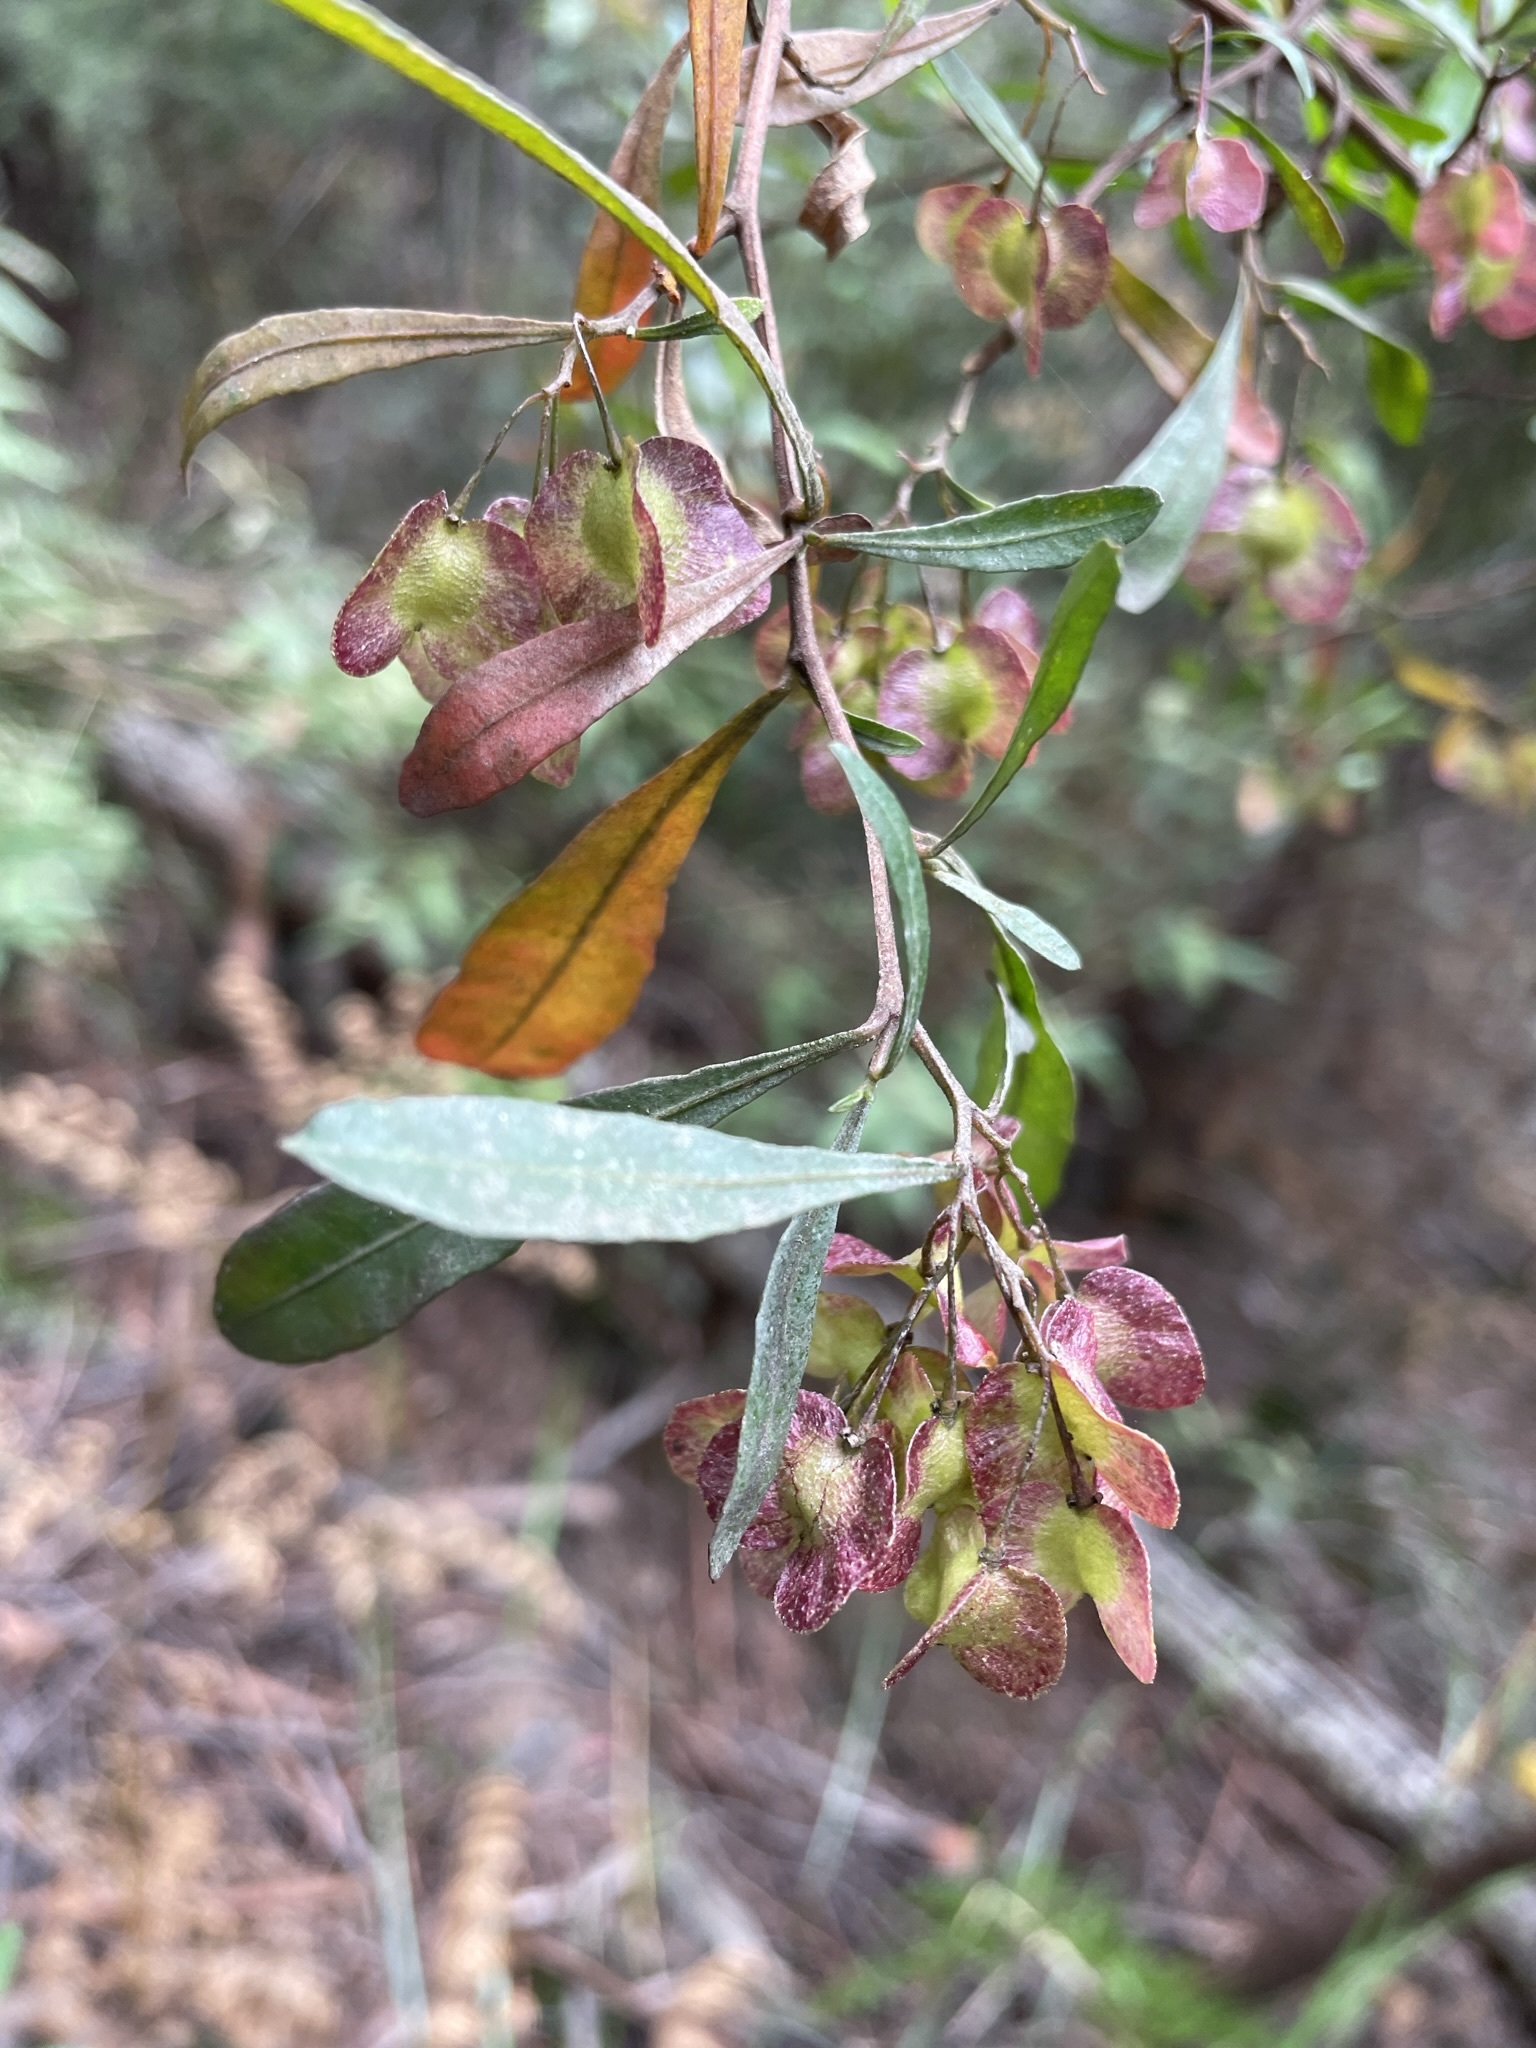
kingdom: Plantae
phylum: Tracheophyta
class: Magnoliopsida
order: Sapindales
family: Sapindaceae
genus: Dodonaea
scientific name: Dodonaea viscosa
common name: Hopbush
